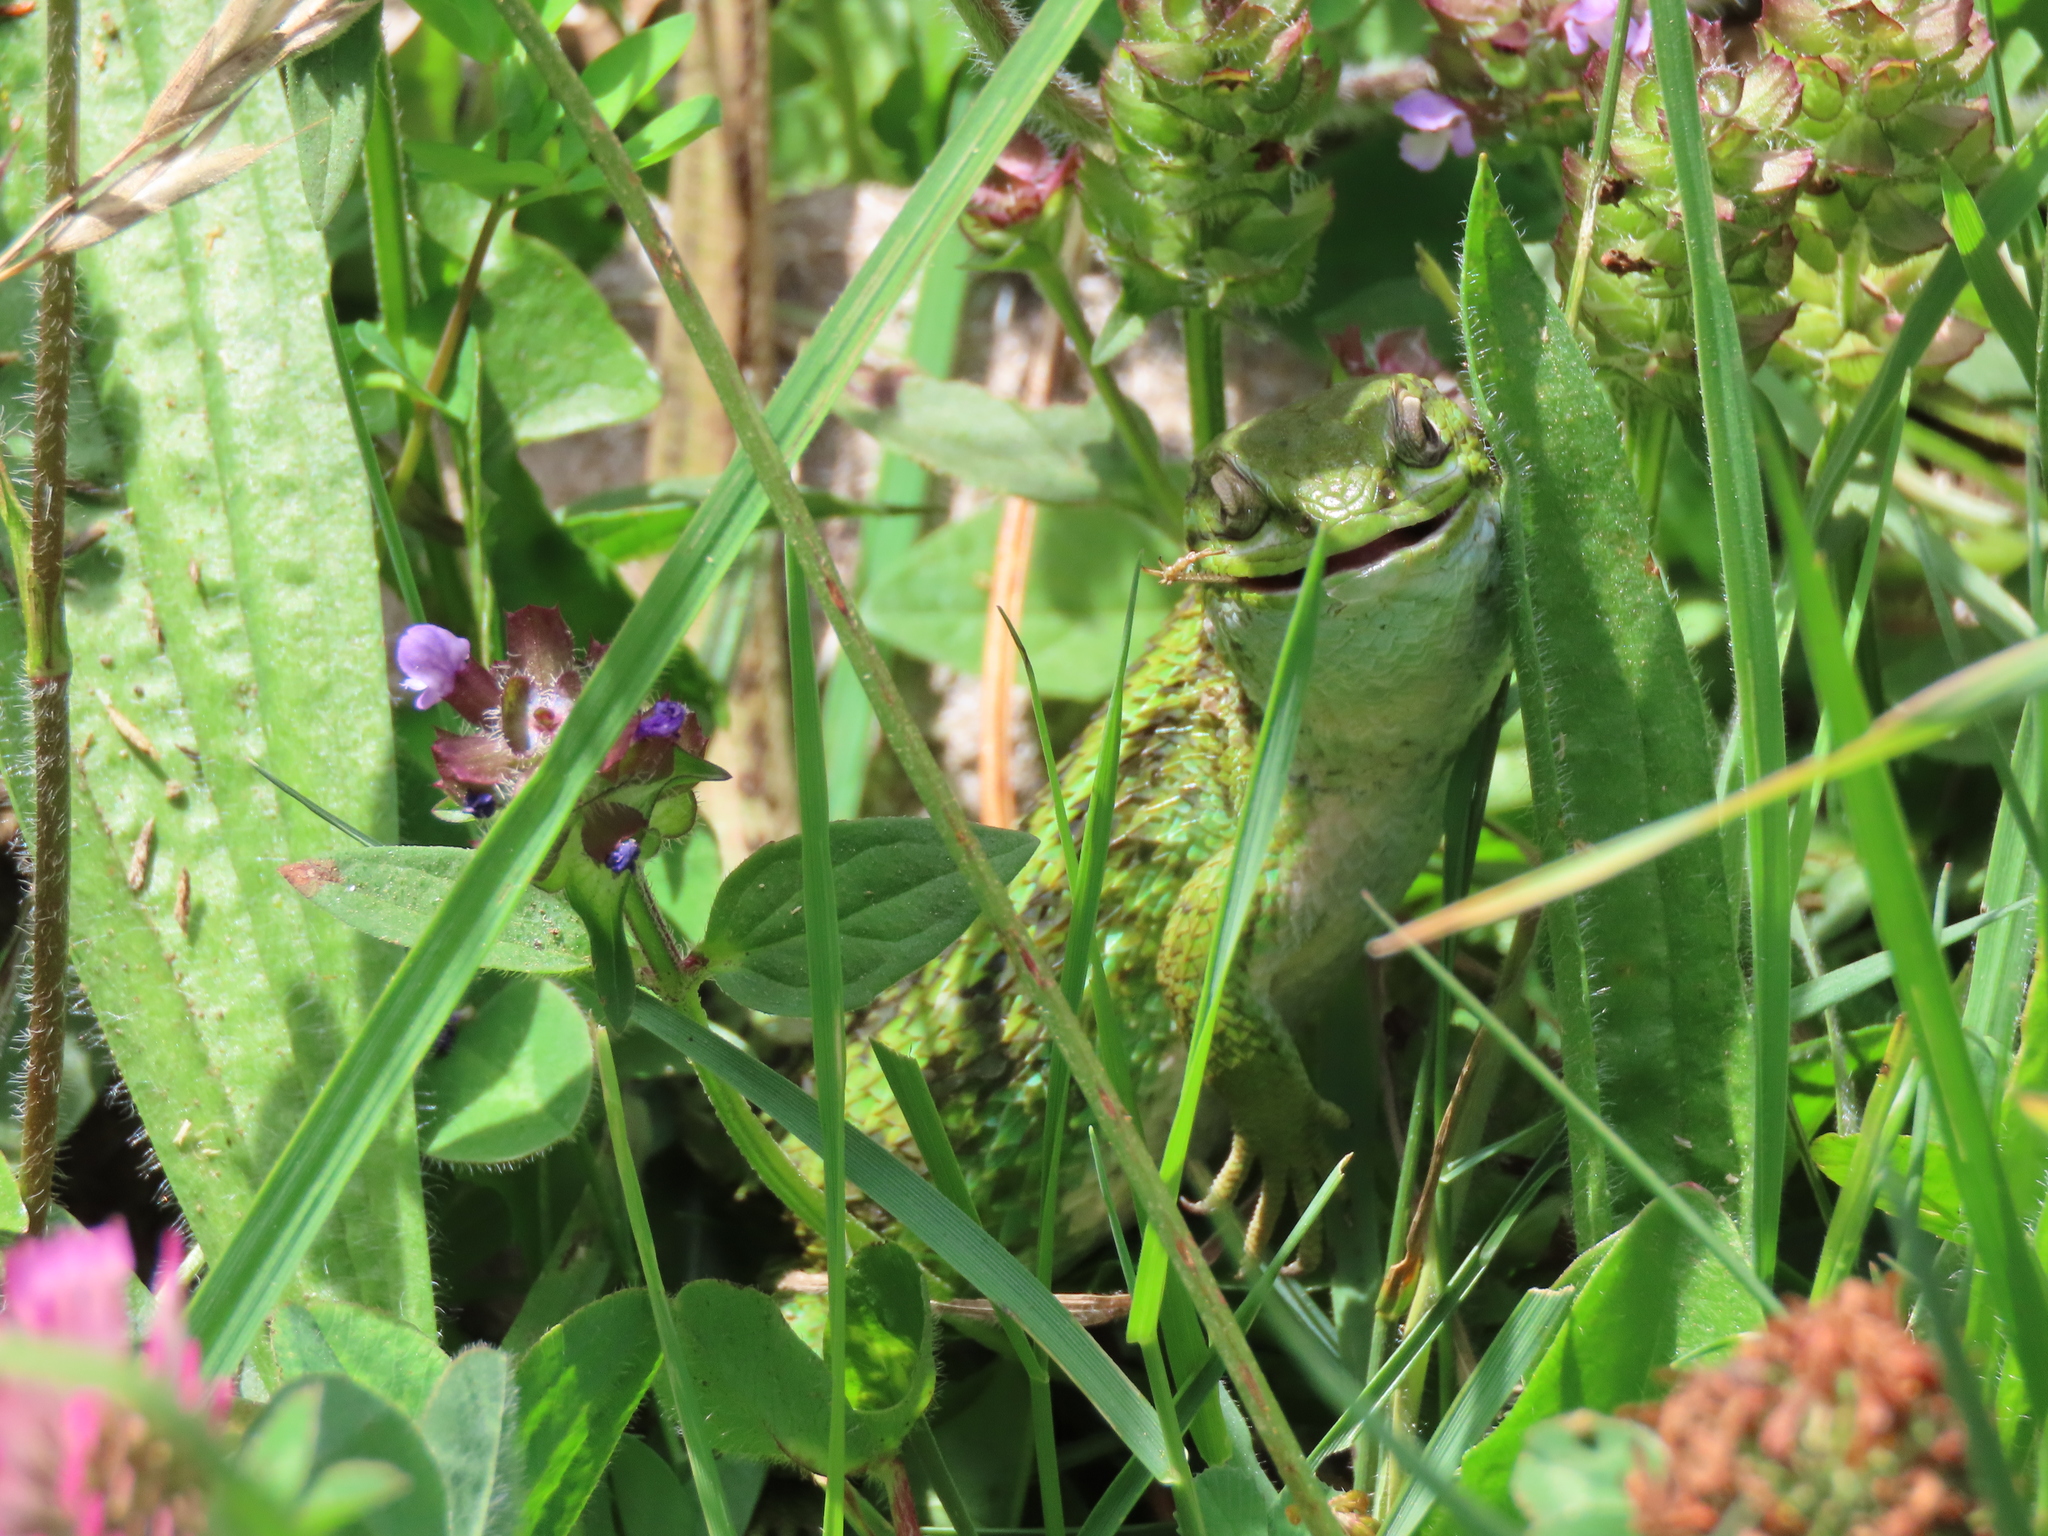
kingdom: Animalia
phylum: Chordata
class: Squamata
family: Liolaemidae
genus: Liolaemus
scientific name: Liolaemus chiliensis
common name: Chilean tree iguana
